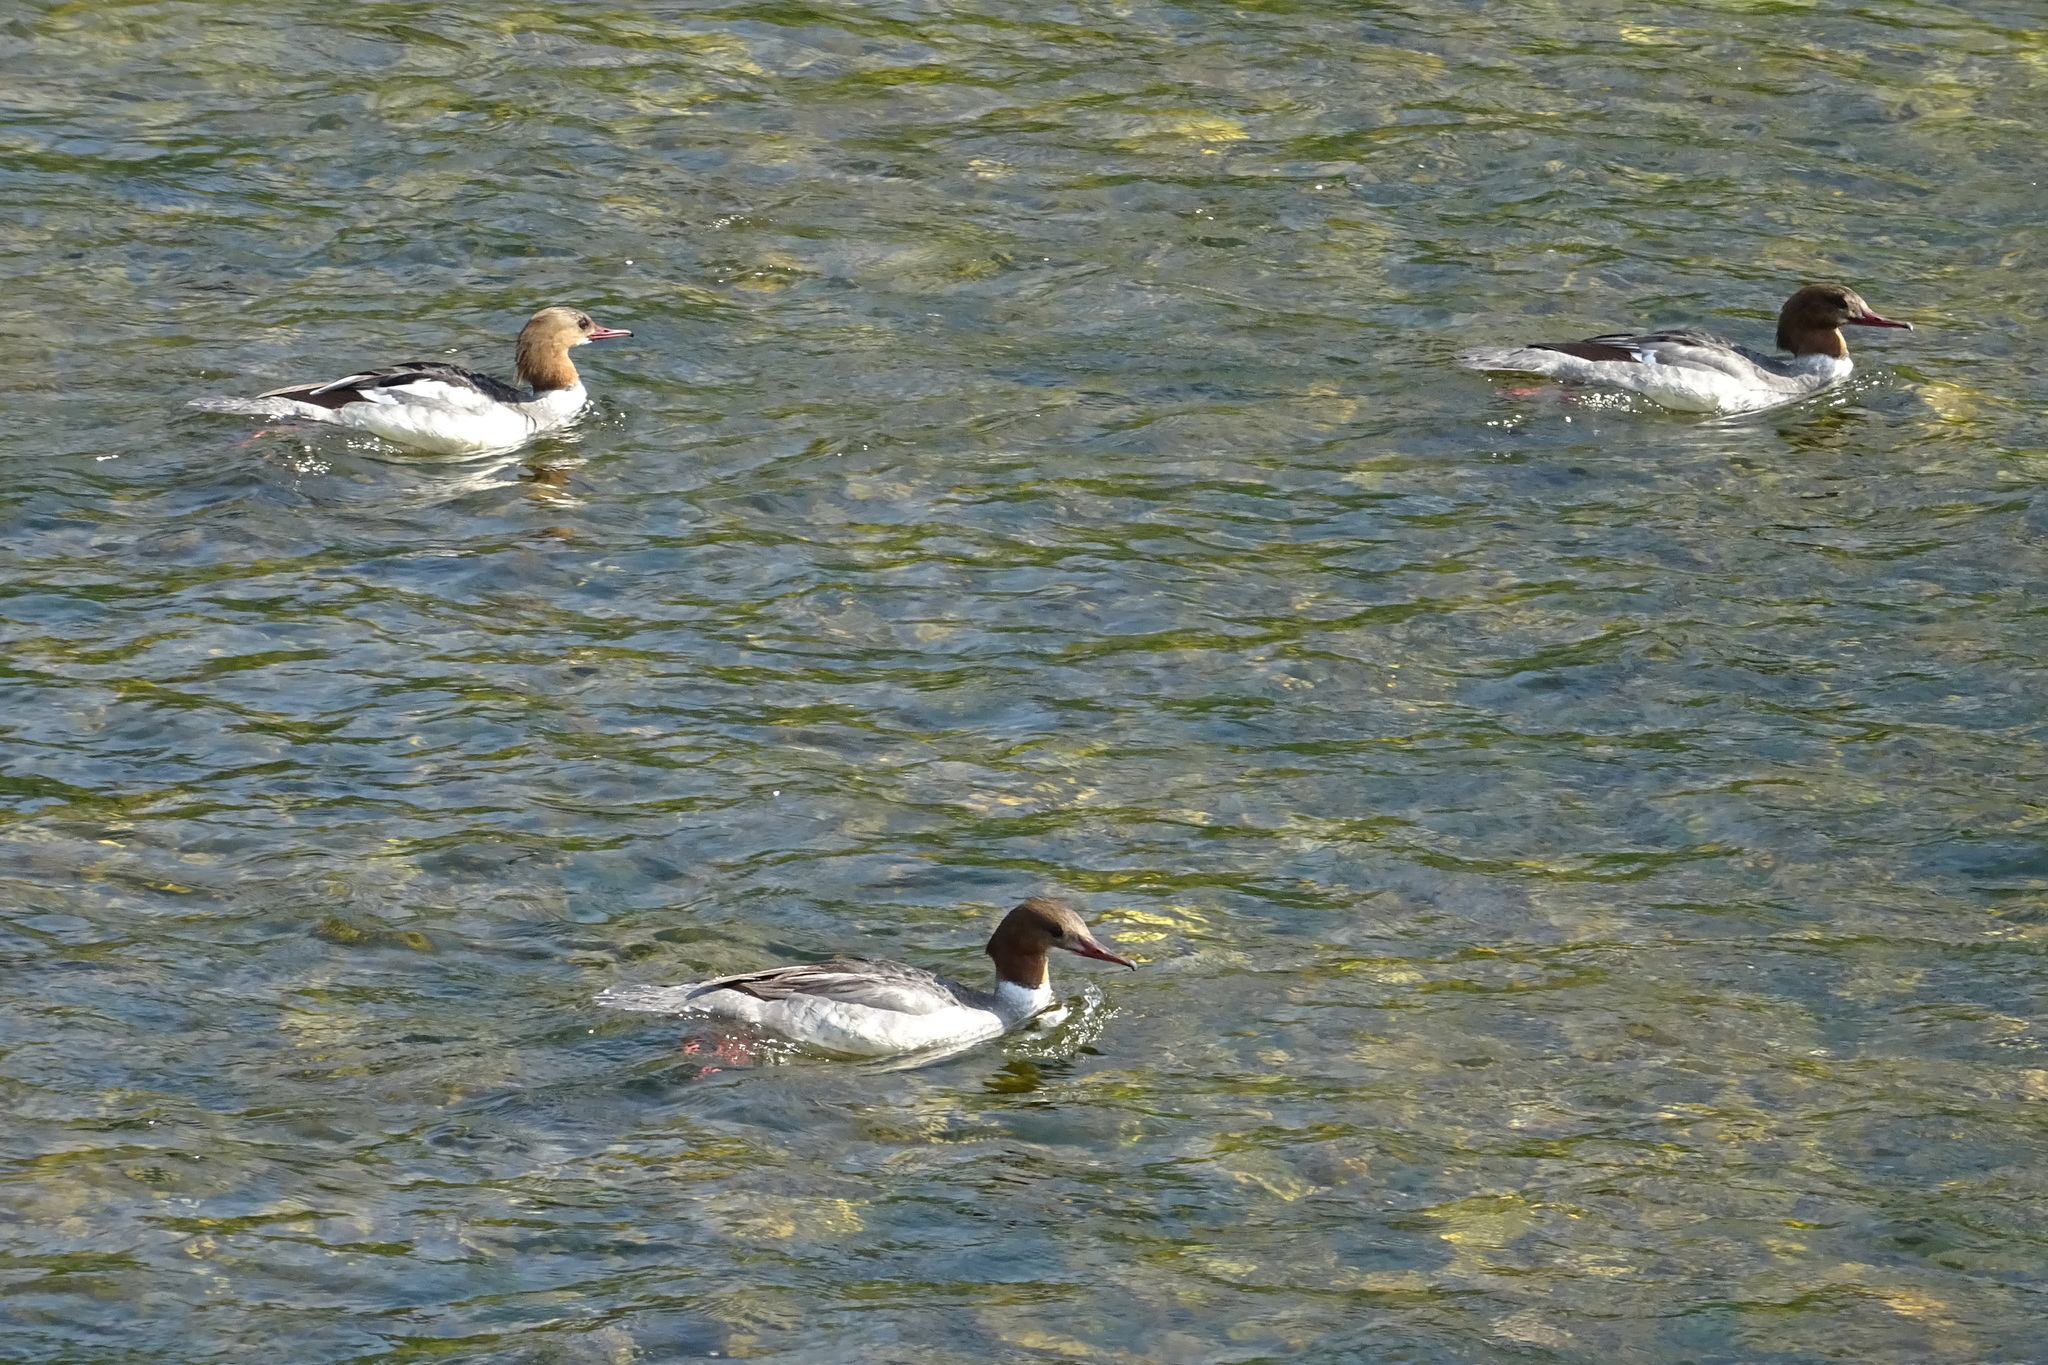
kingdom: Animalia
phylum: Chordata
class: Aves
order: Anseriformes
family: Anatidae
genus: Mergus
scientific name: Mergus merganser
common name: Common merganser
